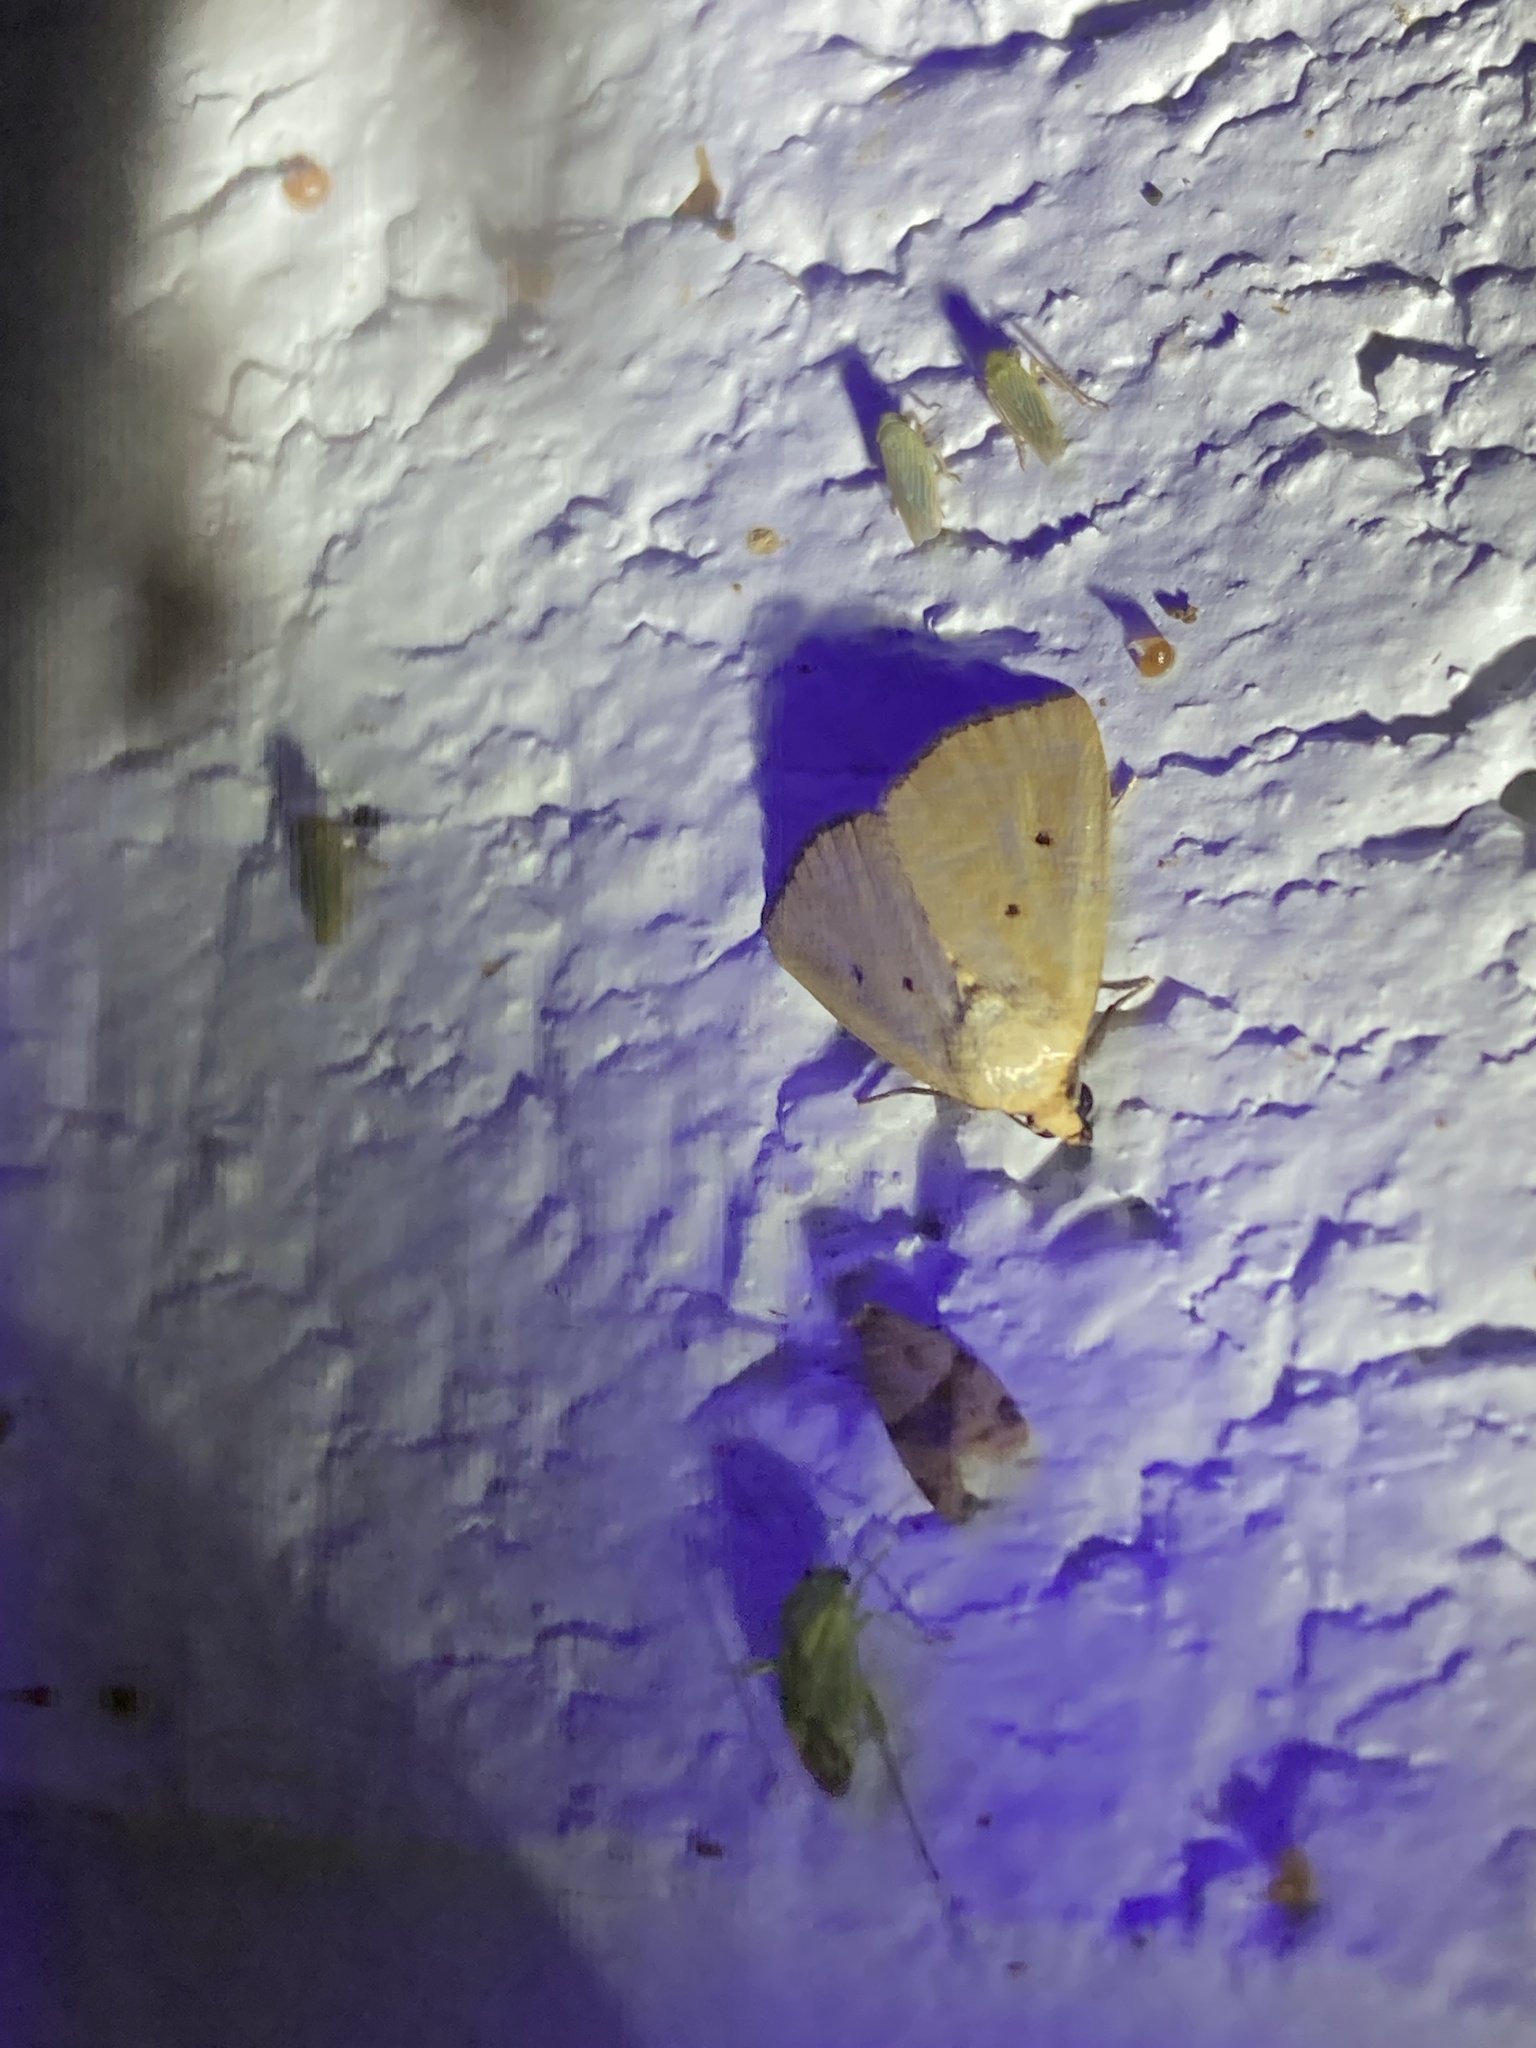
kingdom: Animalia
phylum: Arthropoda
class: Insecta
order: Lepidoptera
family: Noctuidae
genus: Marimatha
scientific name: Marimatha nigrofimbria
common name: Black-bordered lemon moth
